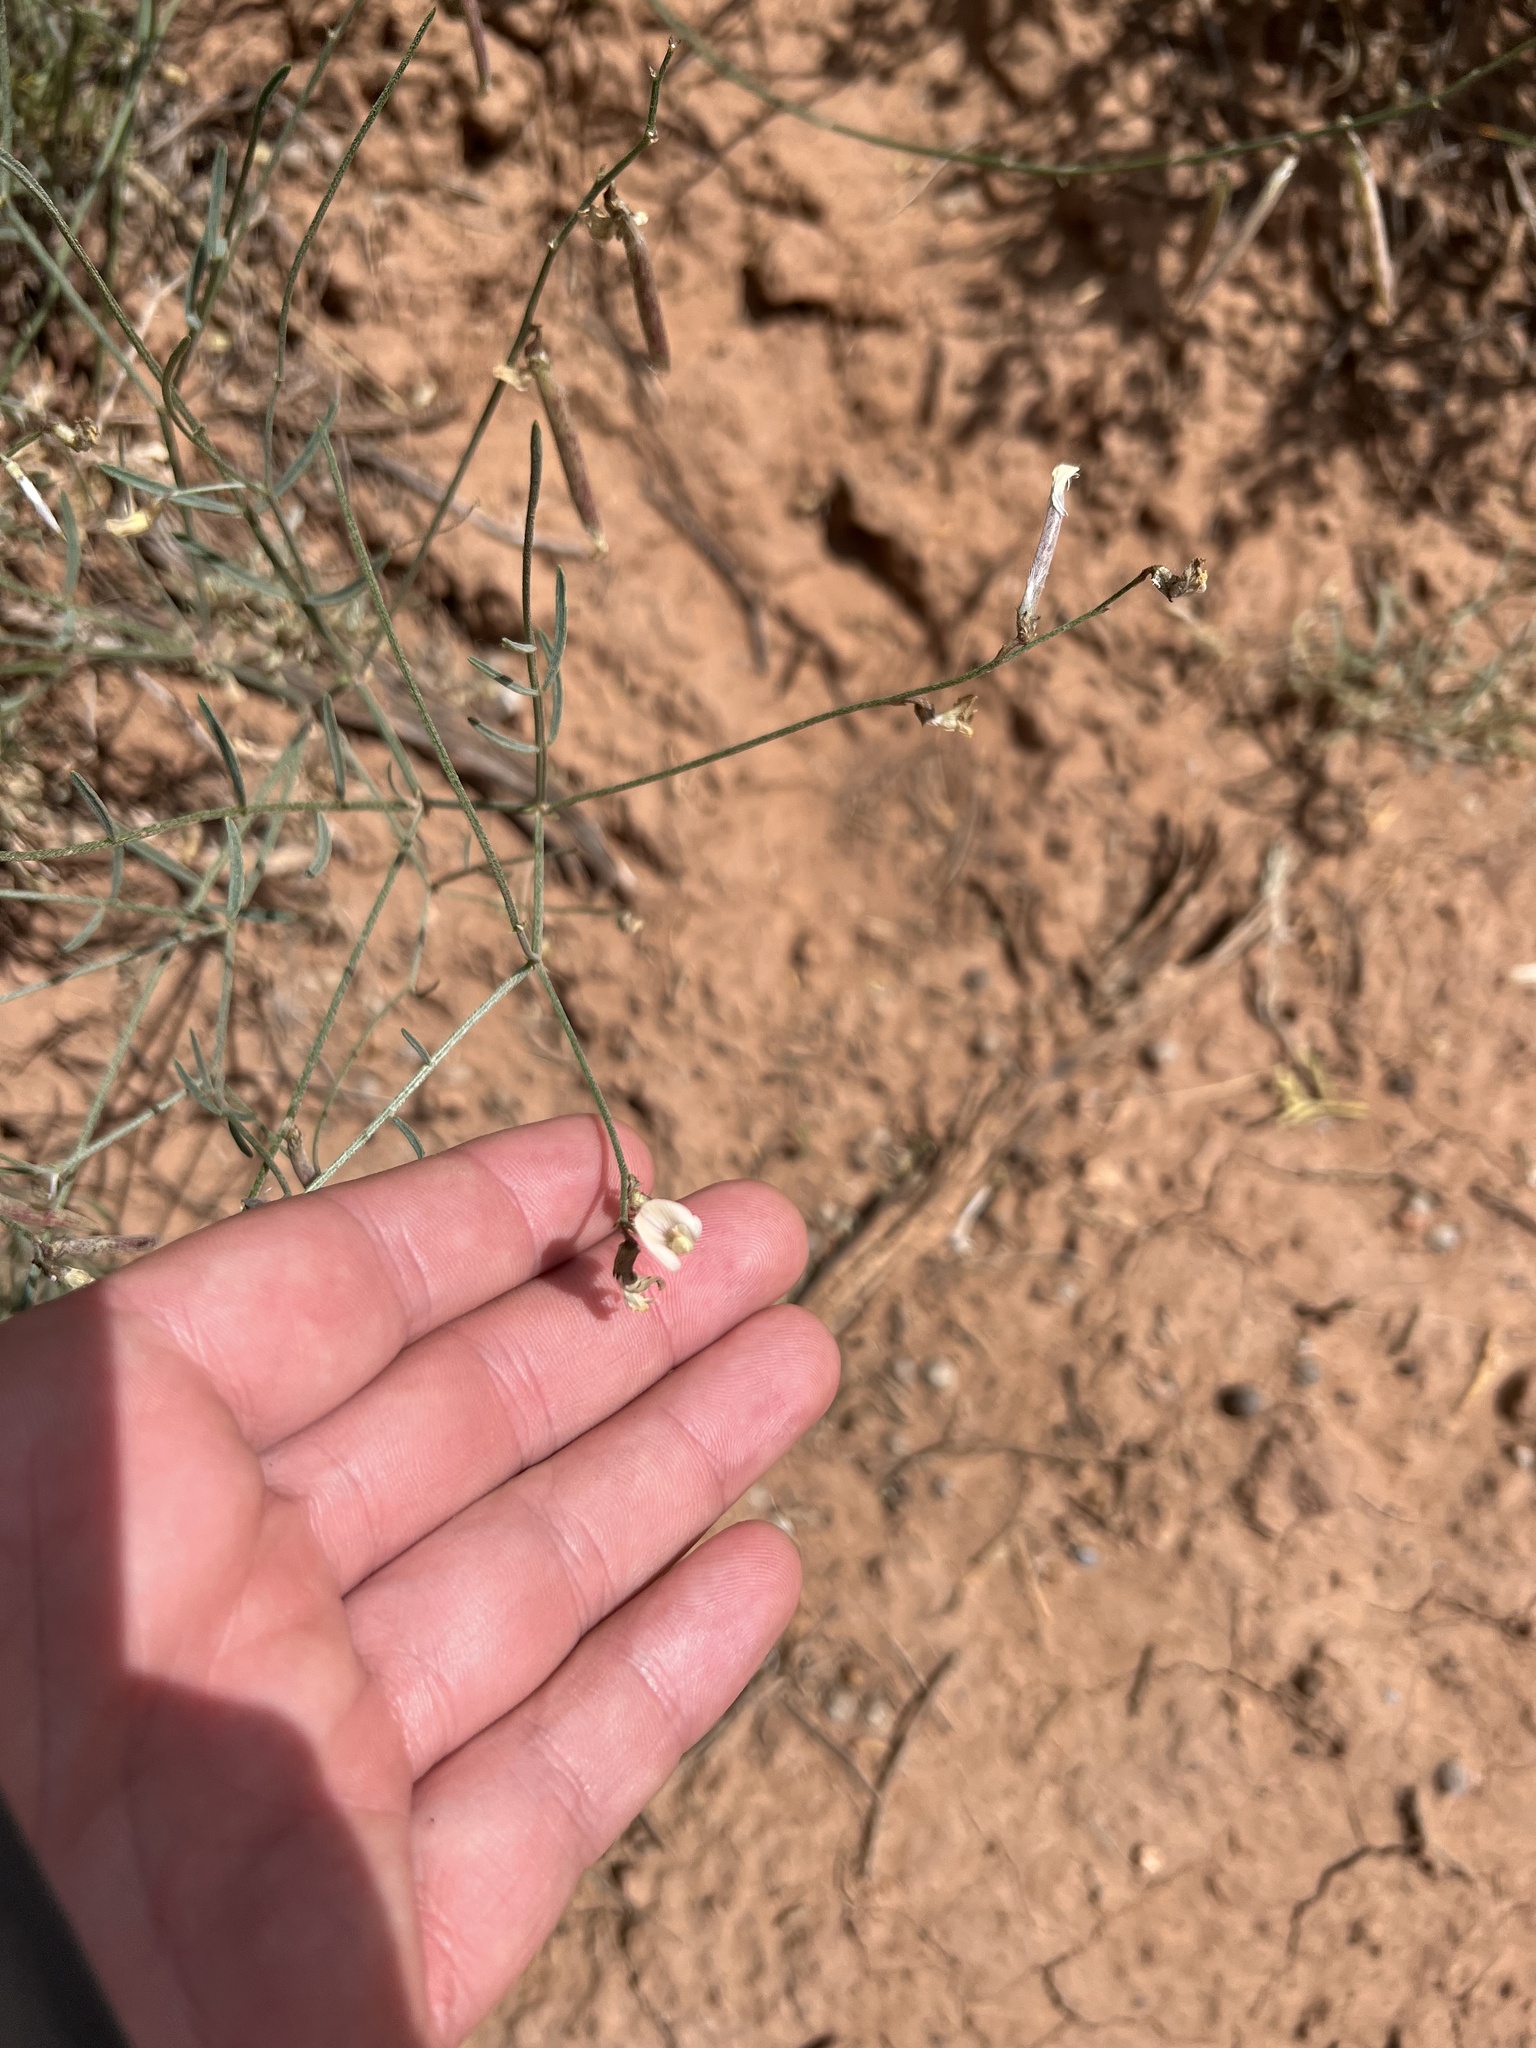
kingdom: Plantae
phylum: Tracheophyta
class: Magnoliopsida
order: Fabales
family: Fabaceae
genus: Astragalus
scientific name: Astragalus convallarius
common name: Lesser rushy milk-vetch
